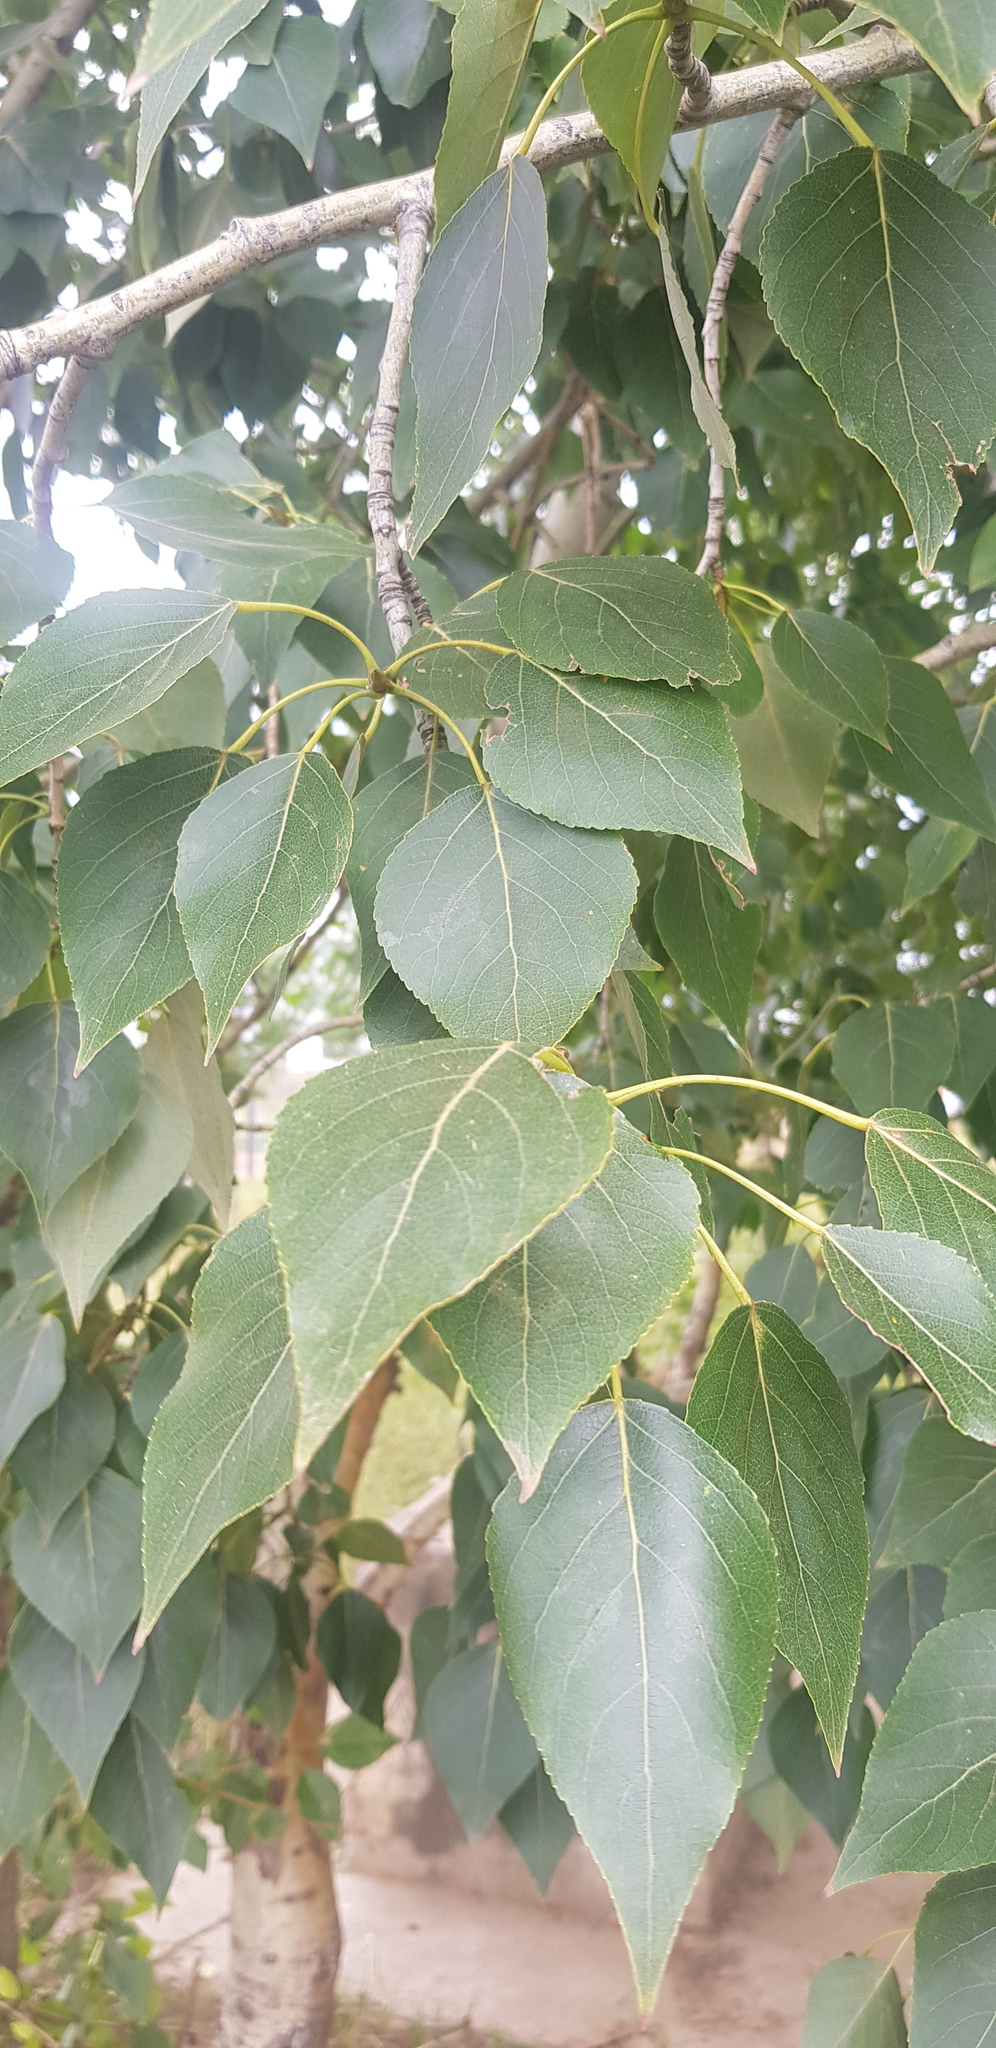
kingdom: Plantae
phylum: Tracheophyta
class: Magnoliopsida
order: Malpighiales
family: Salicaceae
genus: Populus
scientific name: Populus suaveolens
